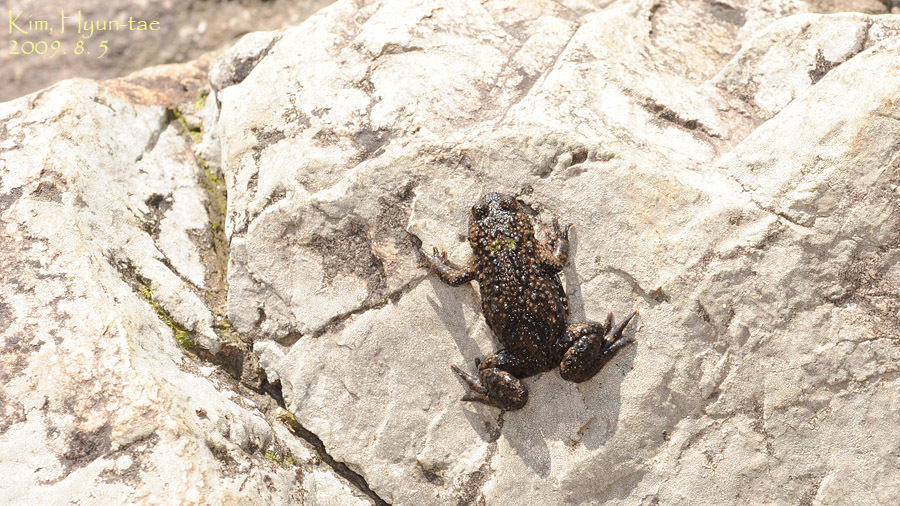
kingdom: Animalia
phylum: Chordata
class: Amphibia
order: Anura
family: Bombinatoridae
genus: Bombina
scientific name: Bombina orientalis
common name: Oriental firebelly toad
